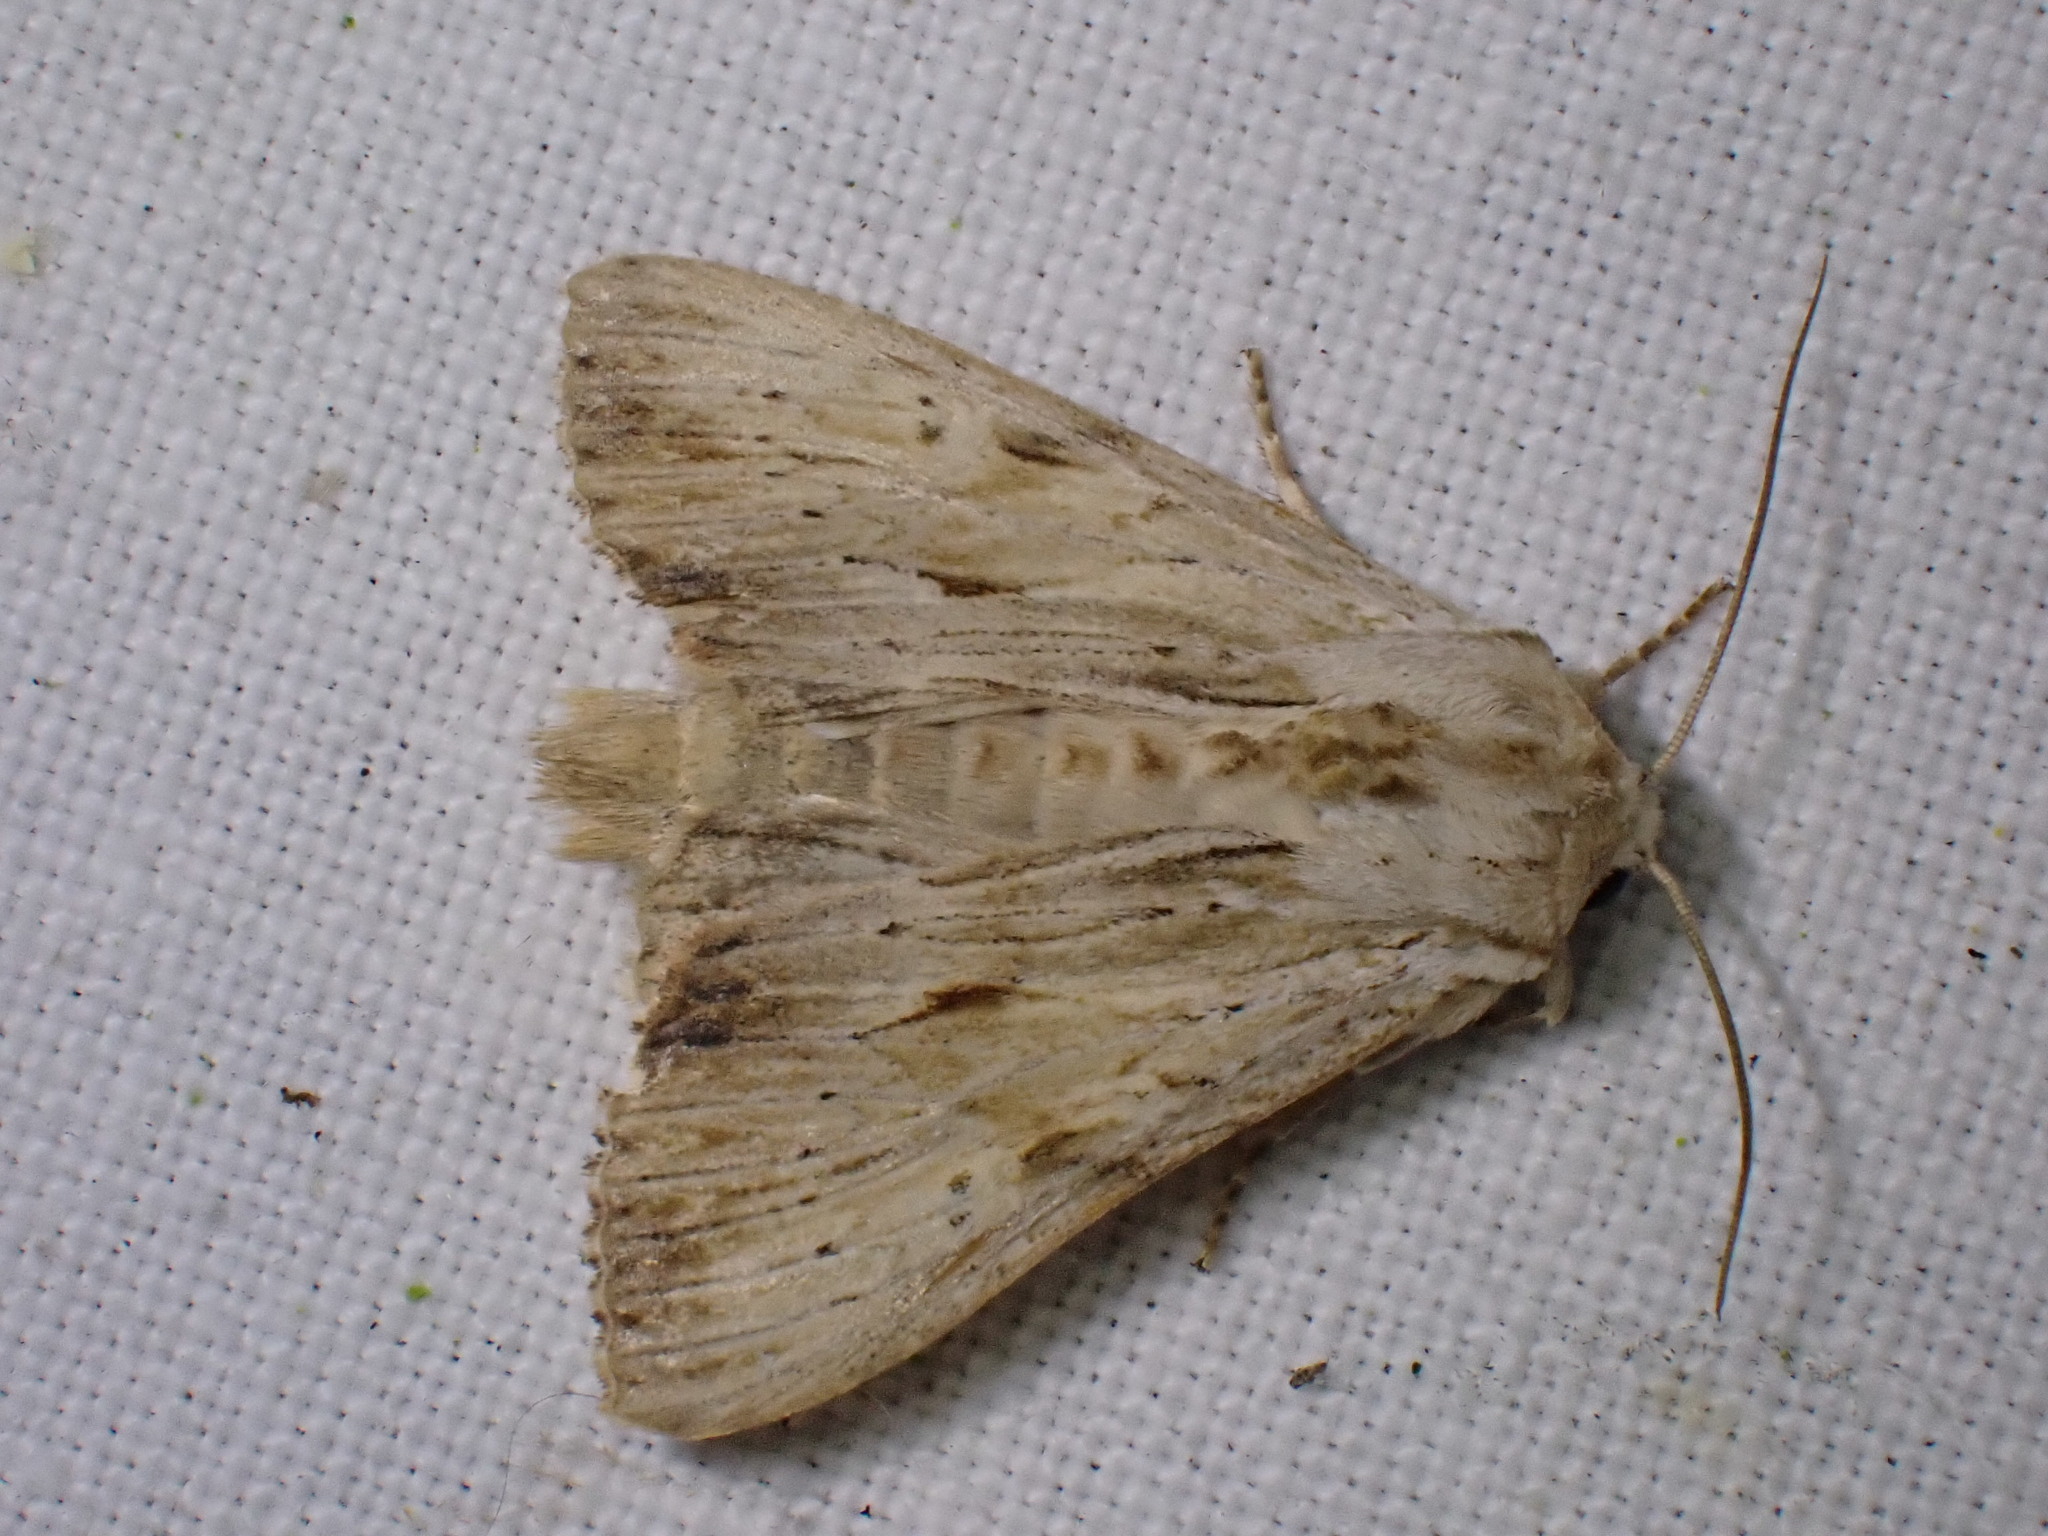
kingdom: Animalia
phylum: Arthropoda
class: Insecta
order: Lepidoptera
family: Noctuidae
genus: Apamea
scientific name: Apamea lithoxylaea
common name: Light arches
